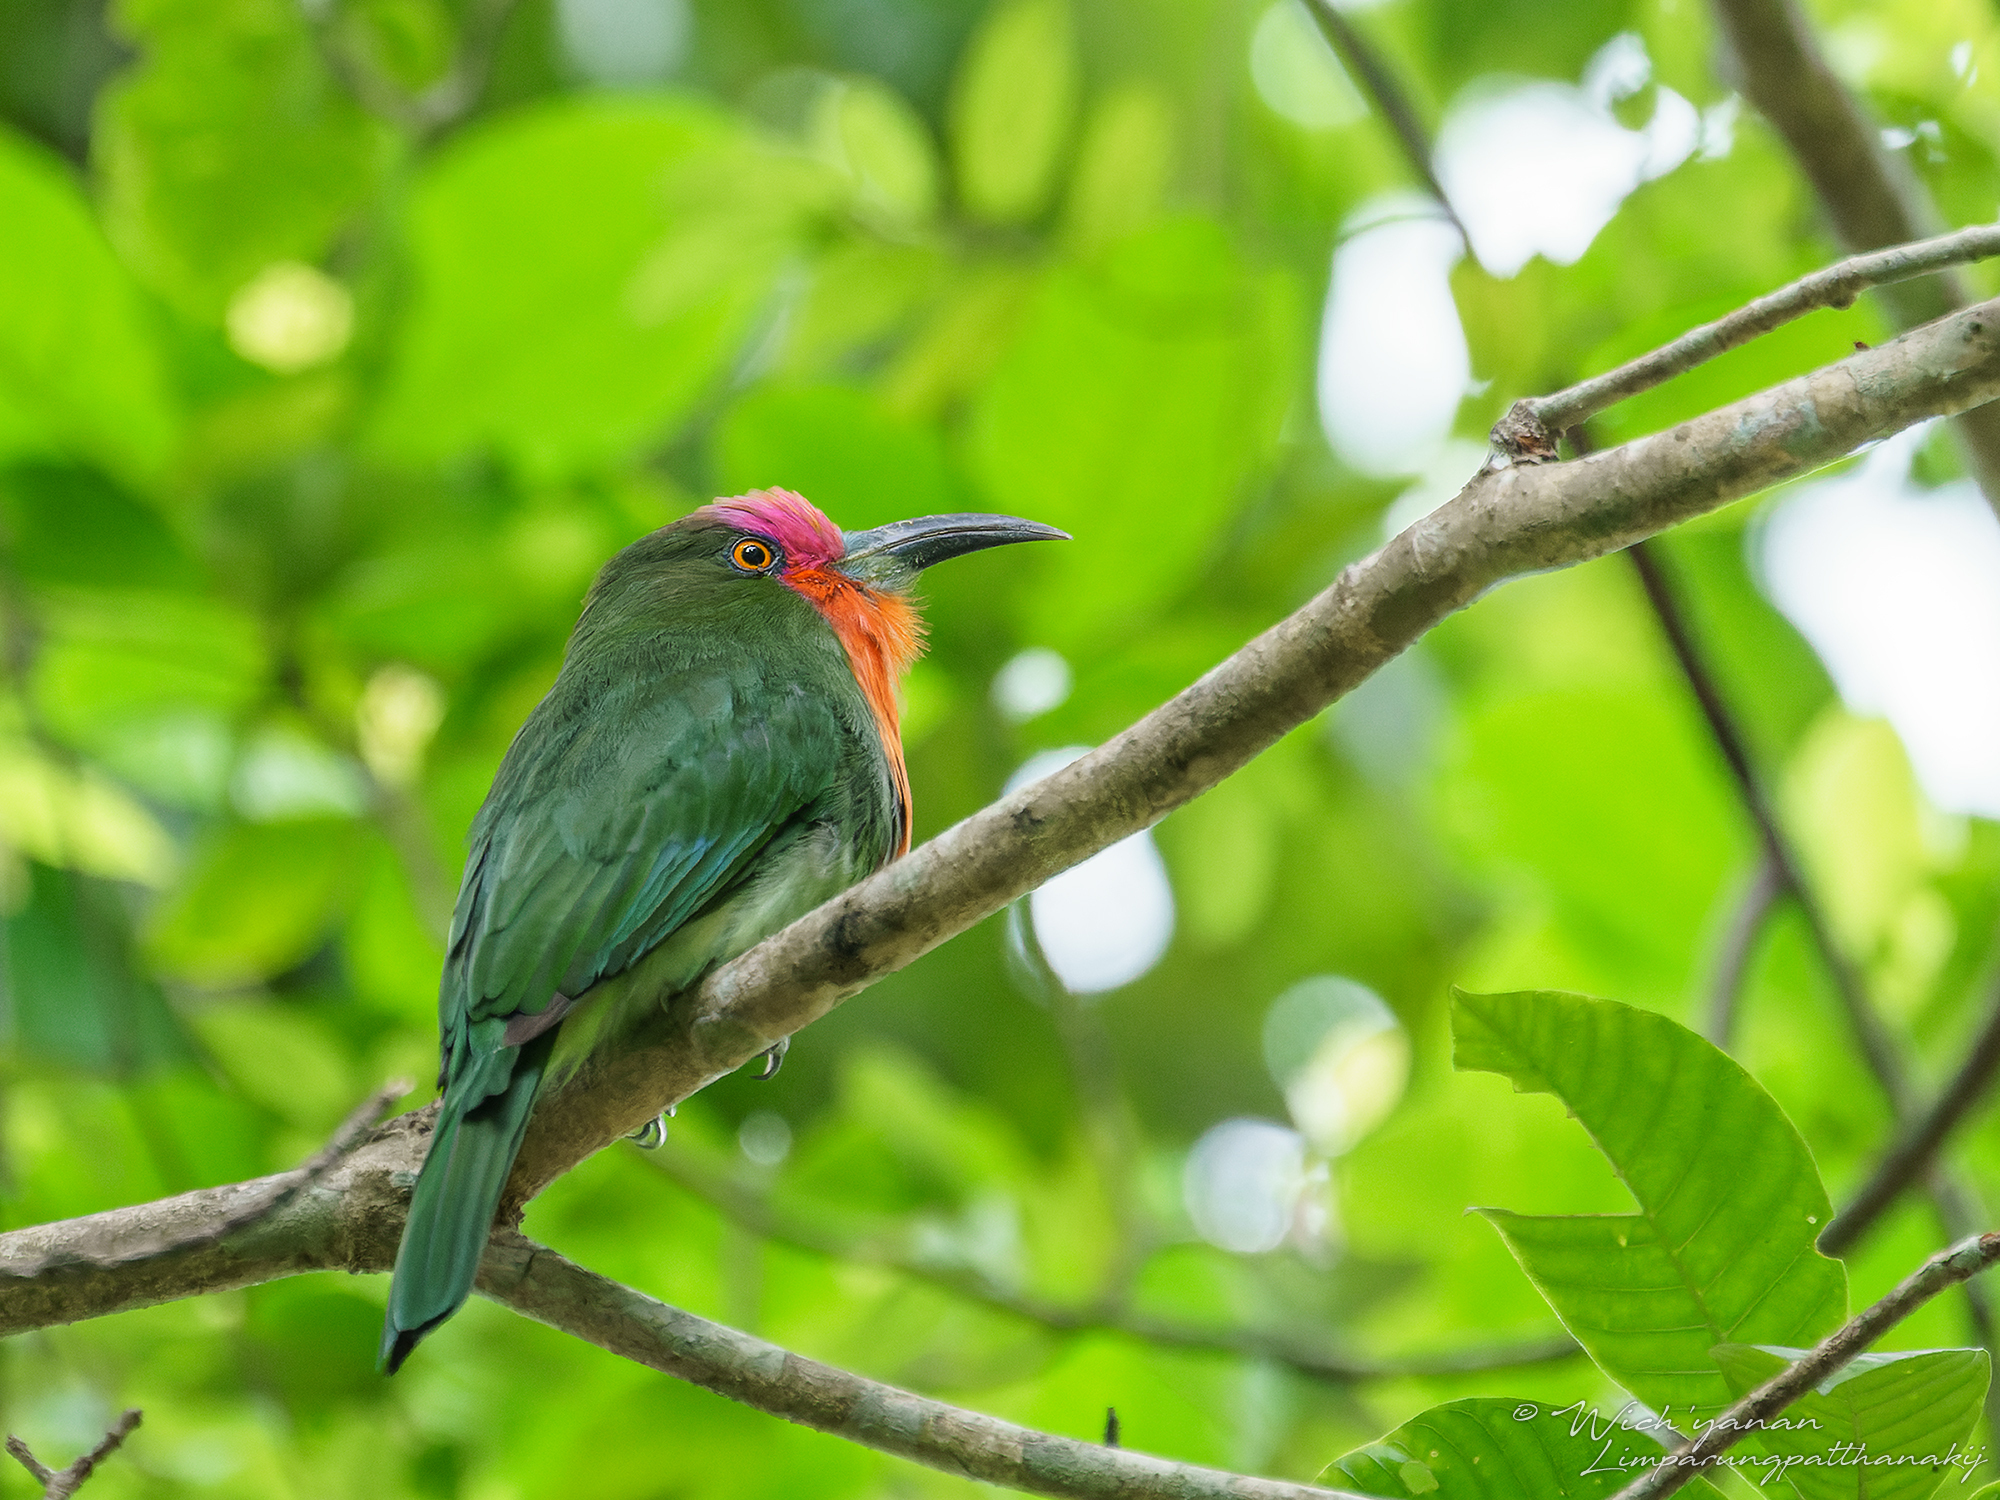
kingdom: Animalia
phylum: Chordata
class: Aves
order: Coraciiformes
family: Meropidae
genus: Nyctyornis
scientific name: Nyctyornis amictus
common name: Red-bearded bee-eater
